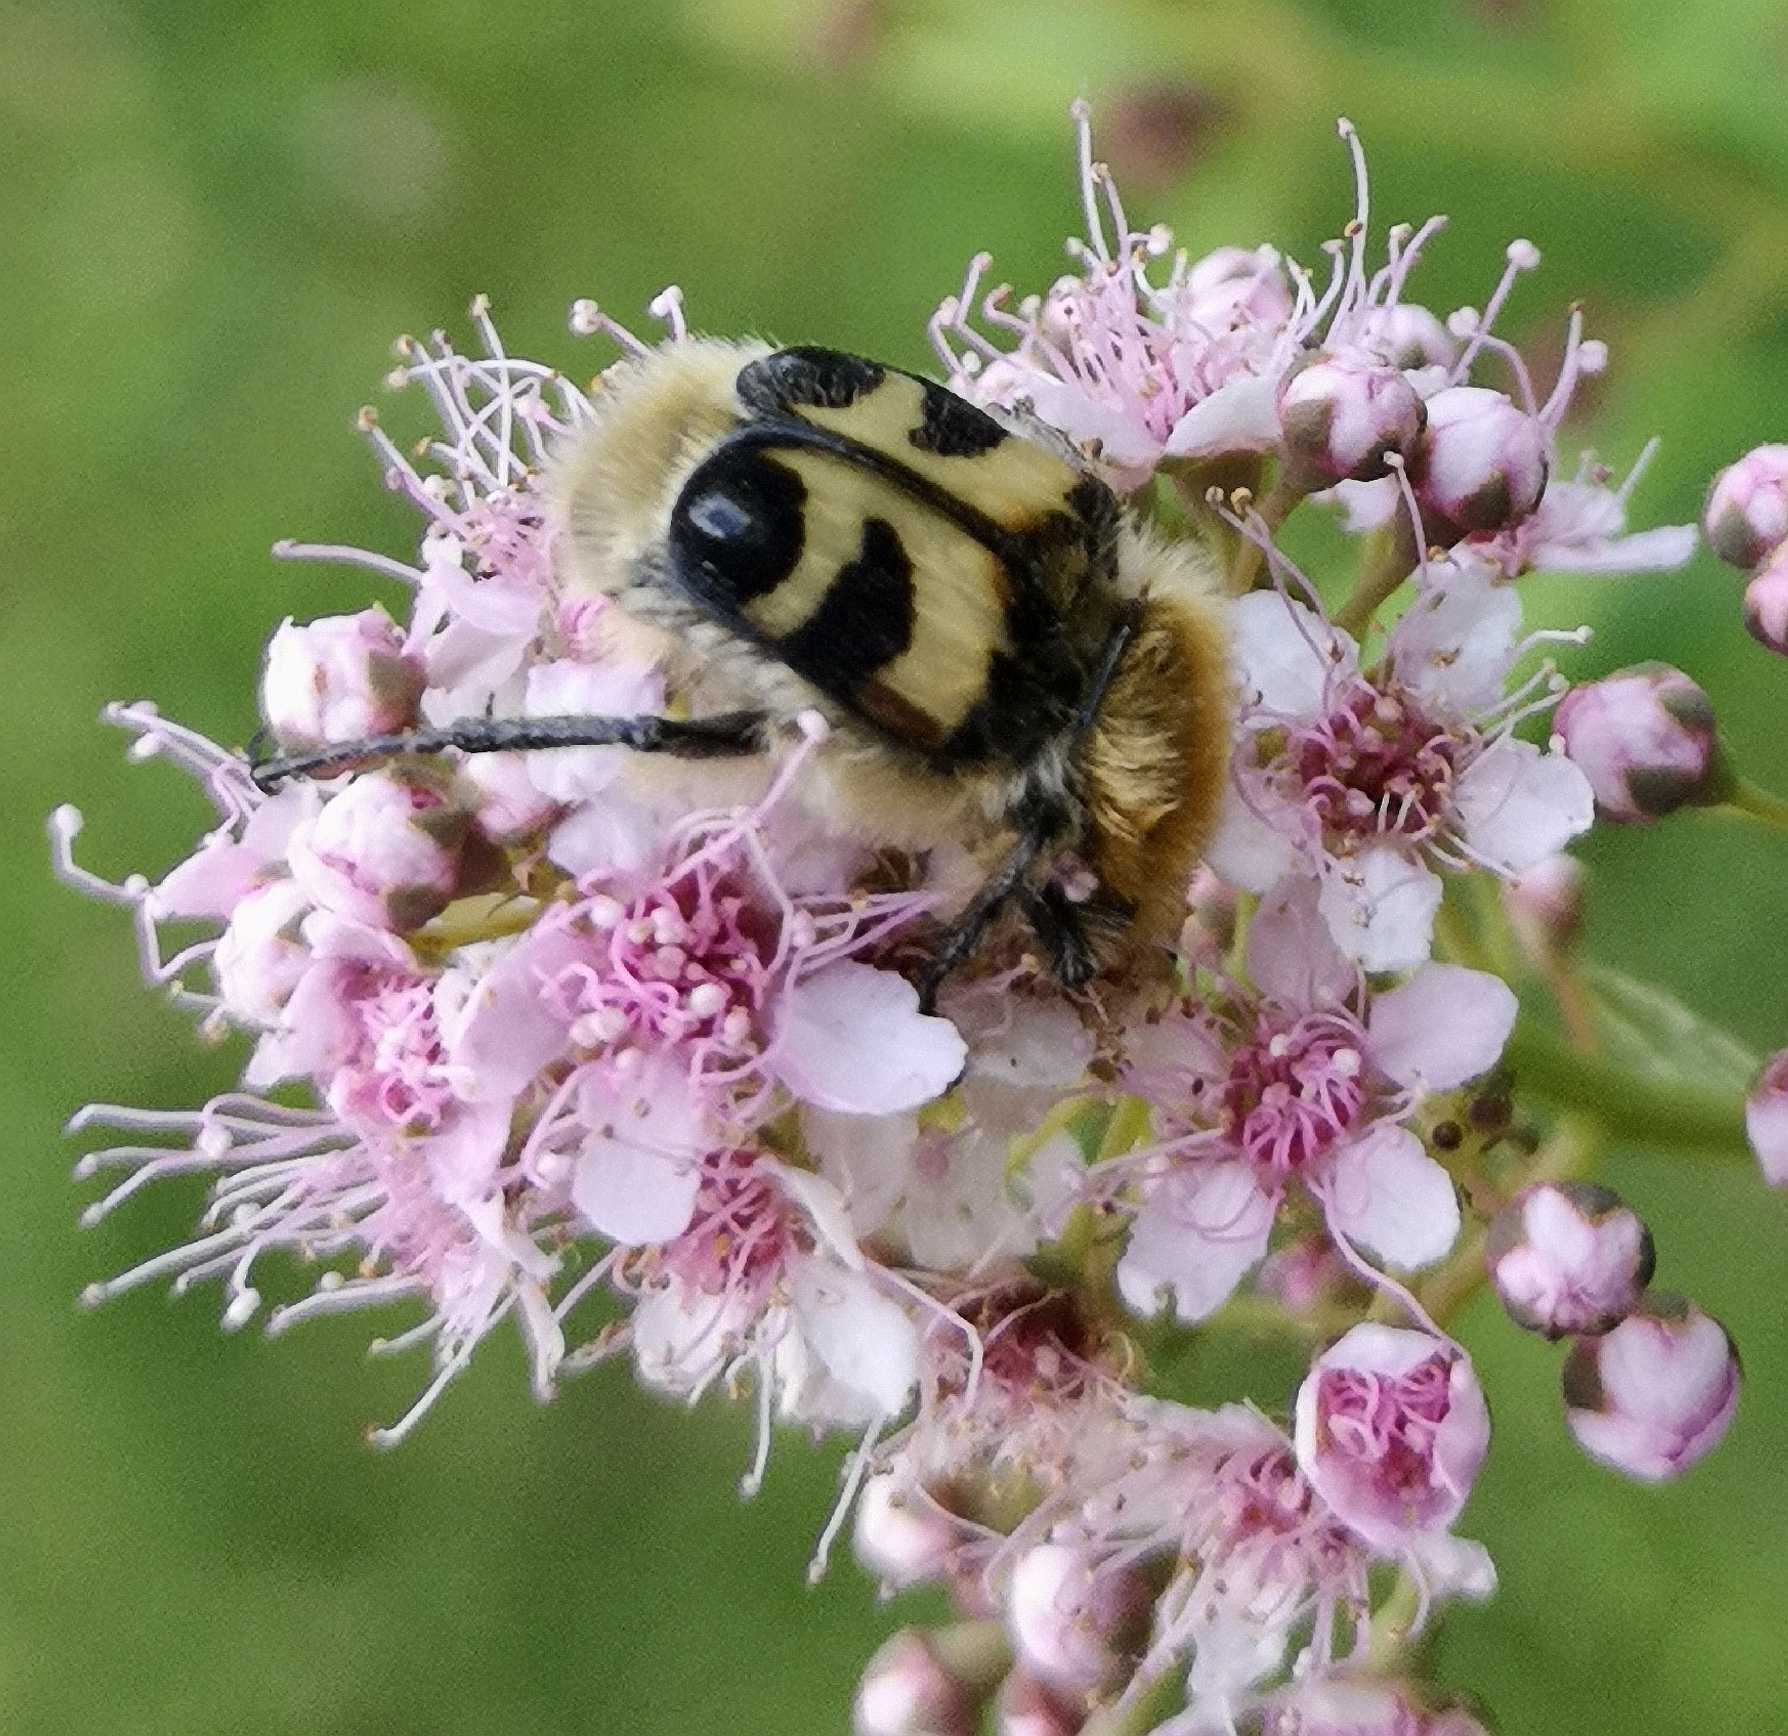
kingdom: Animalia
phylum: Arthropoda
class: Insecta
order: Coleoptera
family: Scarabaeidae
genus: Trichius
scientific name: Trichius fasciatus
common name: Bee beetle
